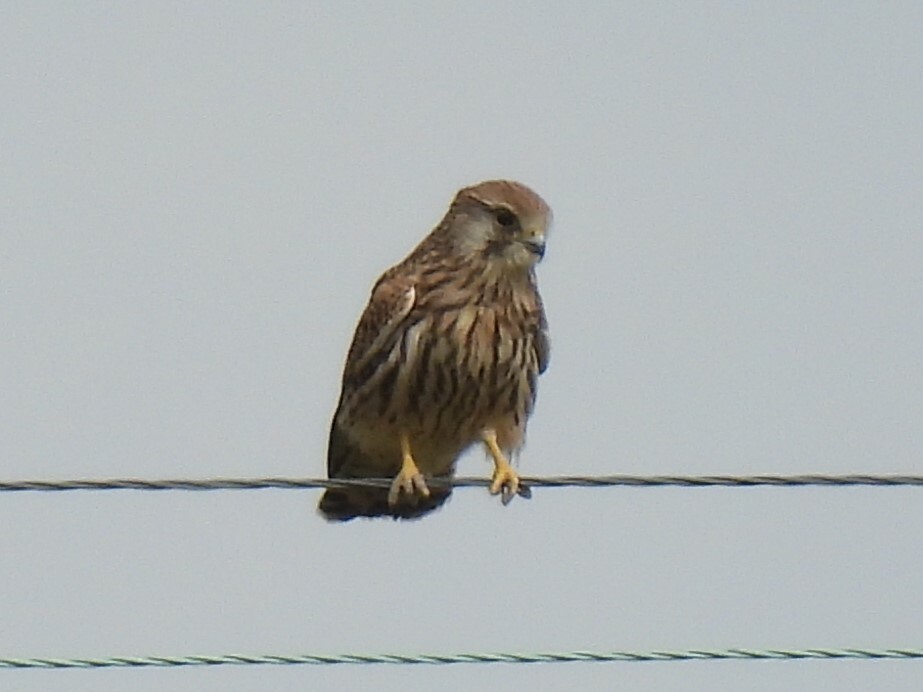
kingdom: Animalia
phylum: Chordata
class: Aves
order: Falconiformes
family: Falconidae
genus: Falco
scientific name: Falco tinnunculus
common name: Common kestrel
